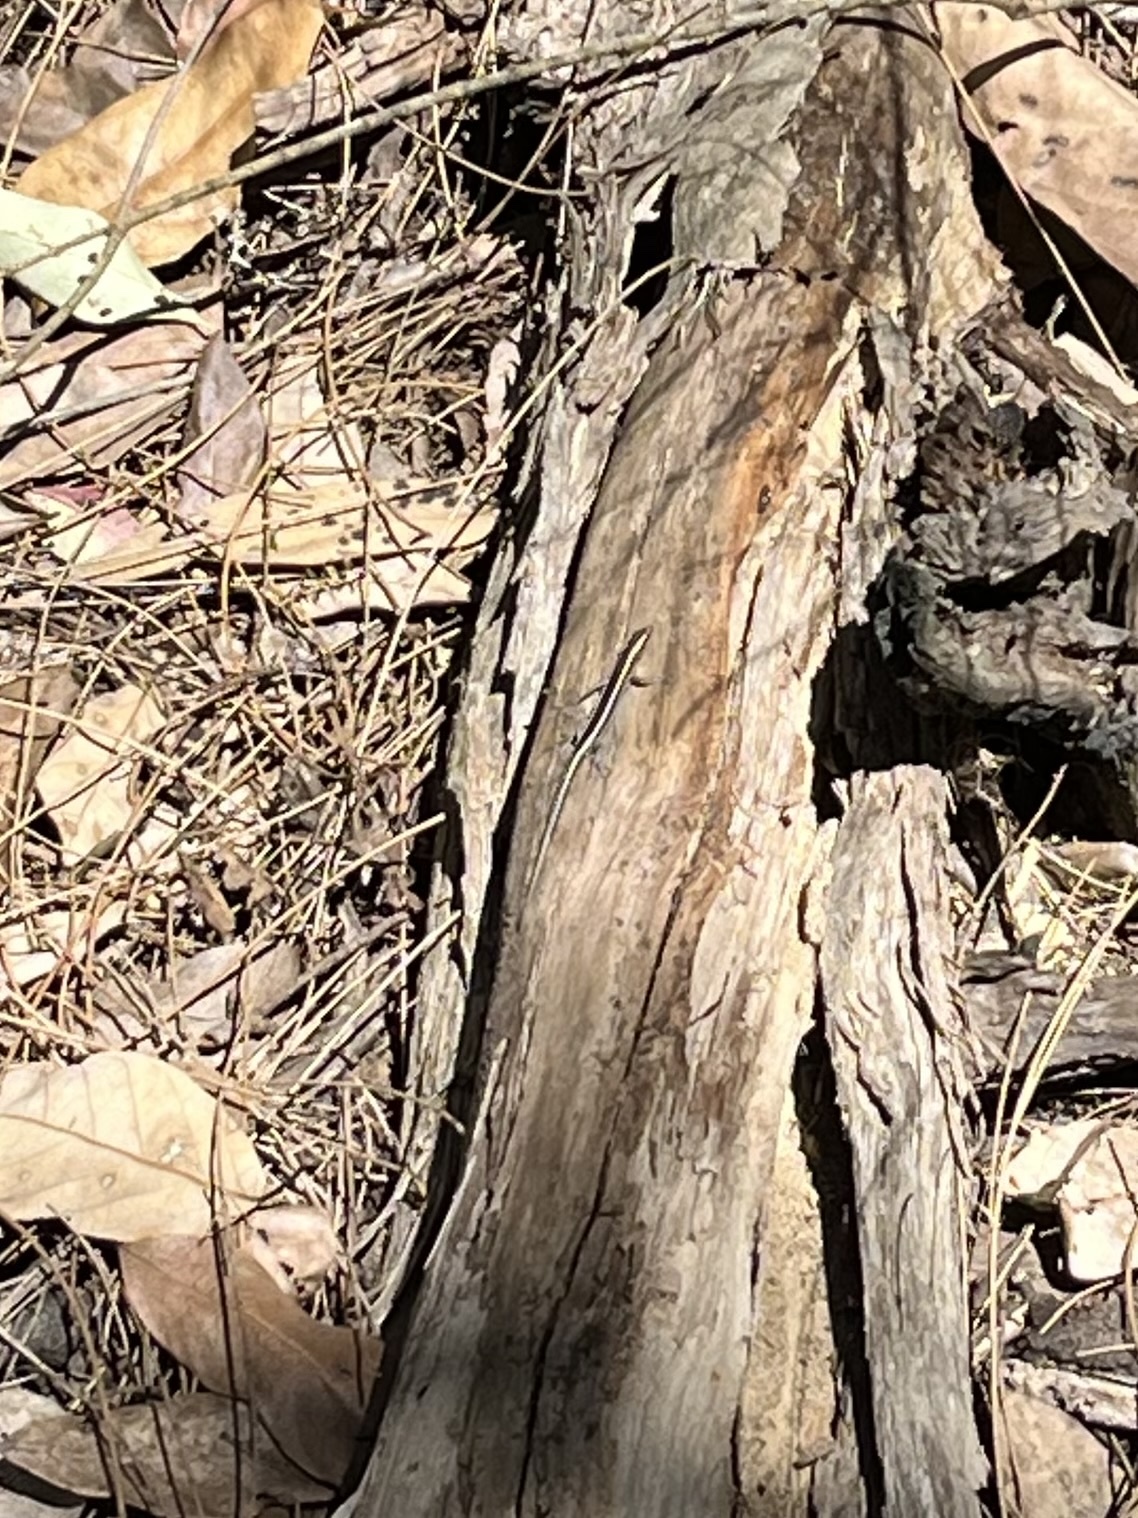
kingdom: Animalia
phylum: Chordata
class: Squamata
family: Scincidae
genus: Cryptoblepharus
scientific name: Cryptoblepharus pulcher
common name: Elegant snake-eyed skink
